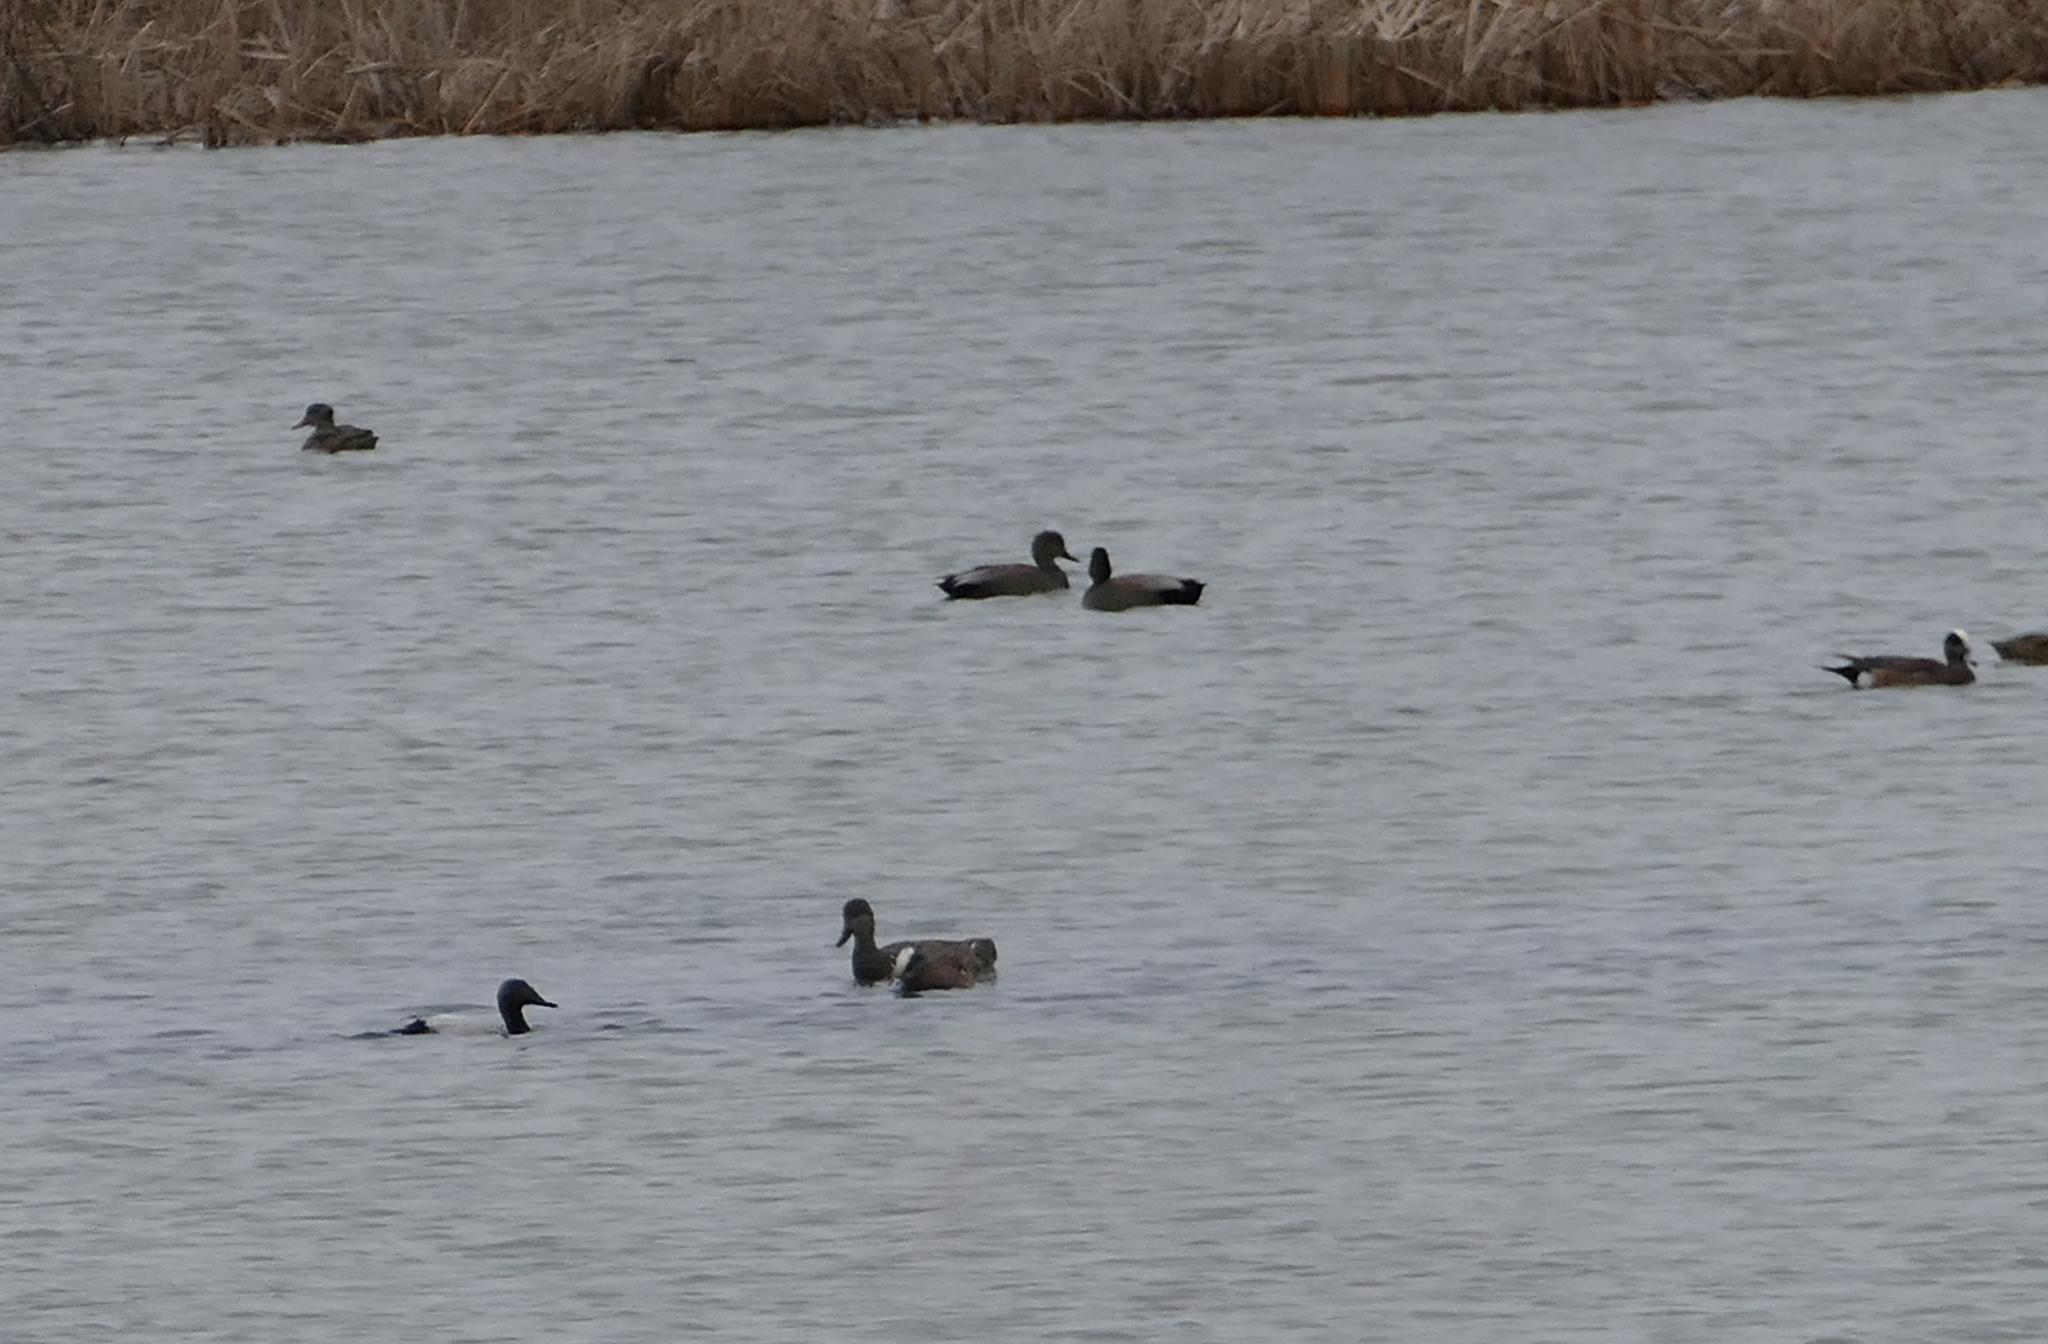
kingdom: Animalia
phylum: Chordata
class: Aves
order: Anseriformes
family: Anatidae
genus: Mareca
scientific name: Mareca americana
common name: American wigeon
